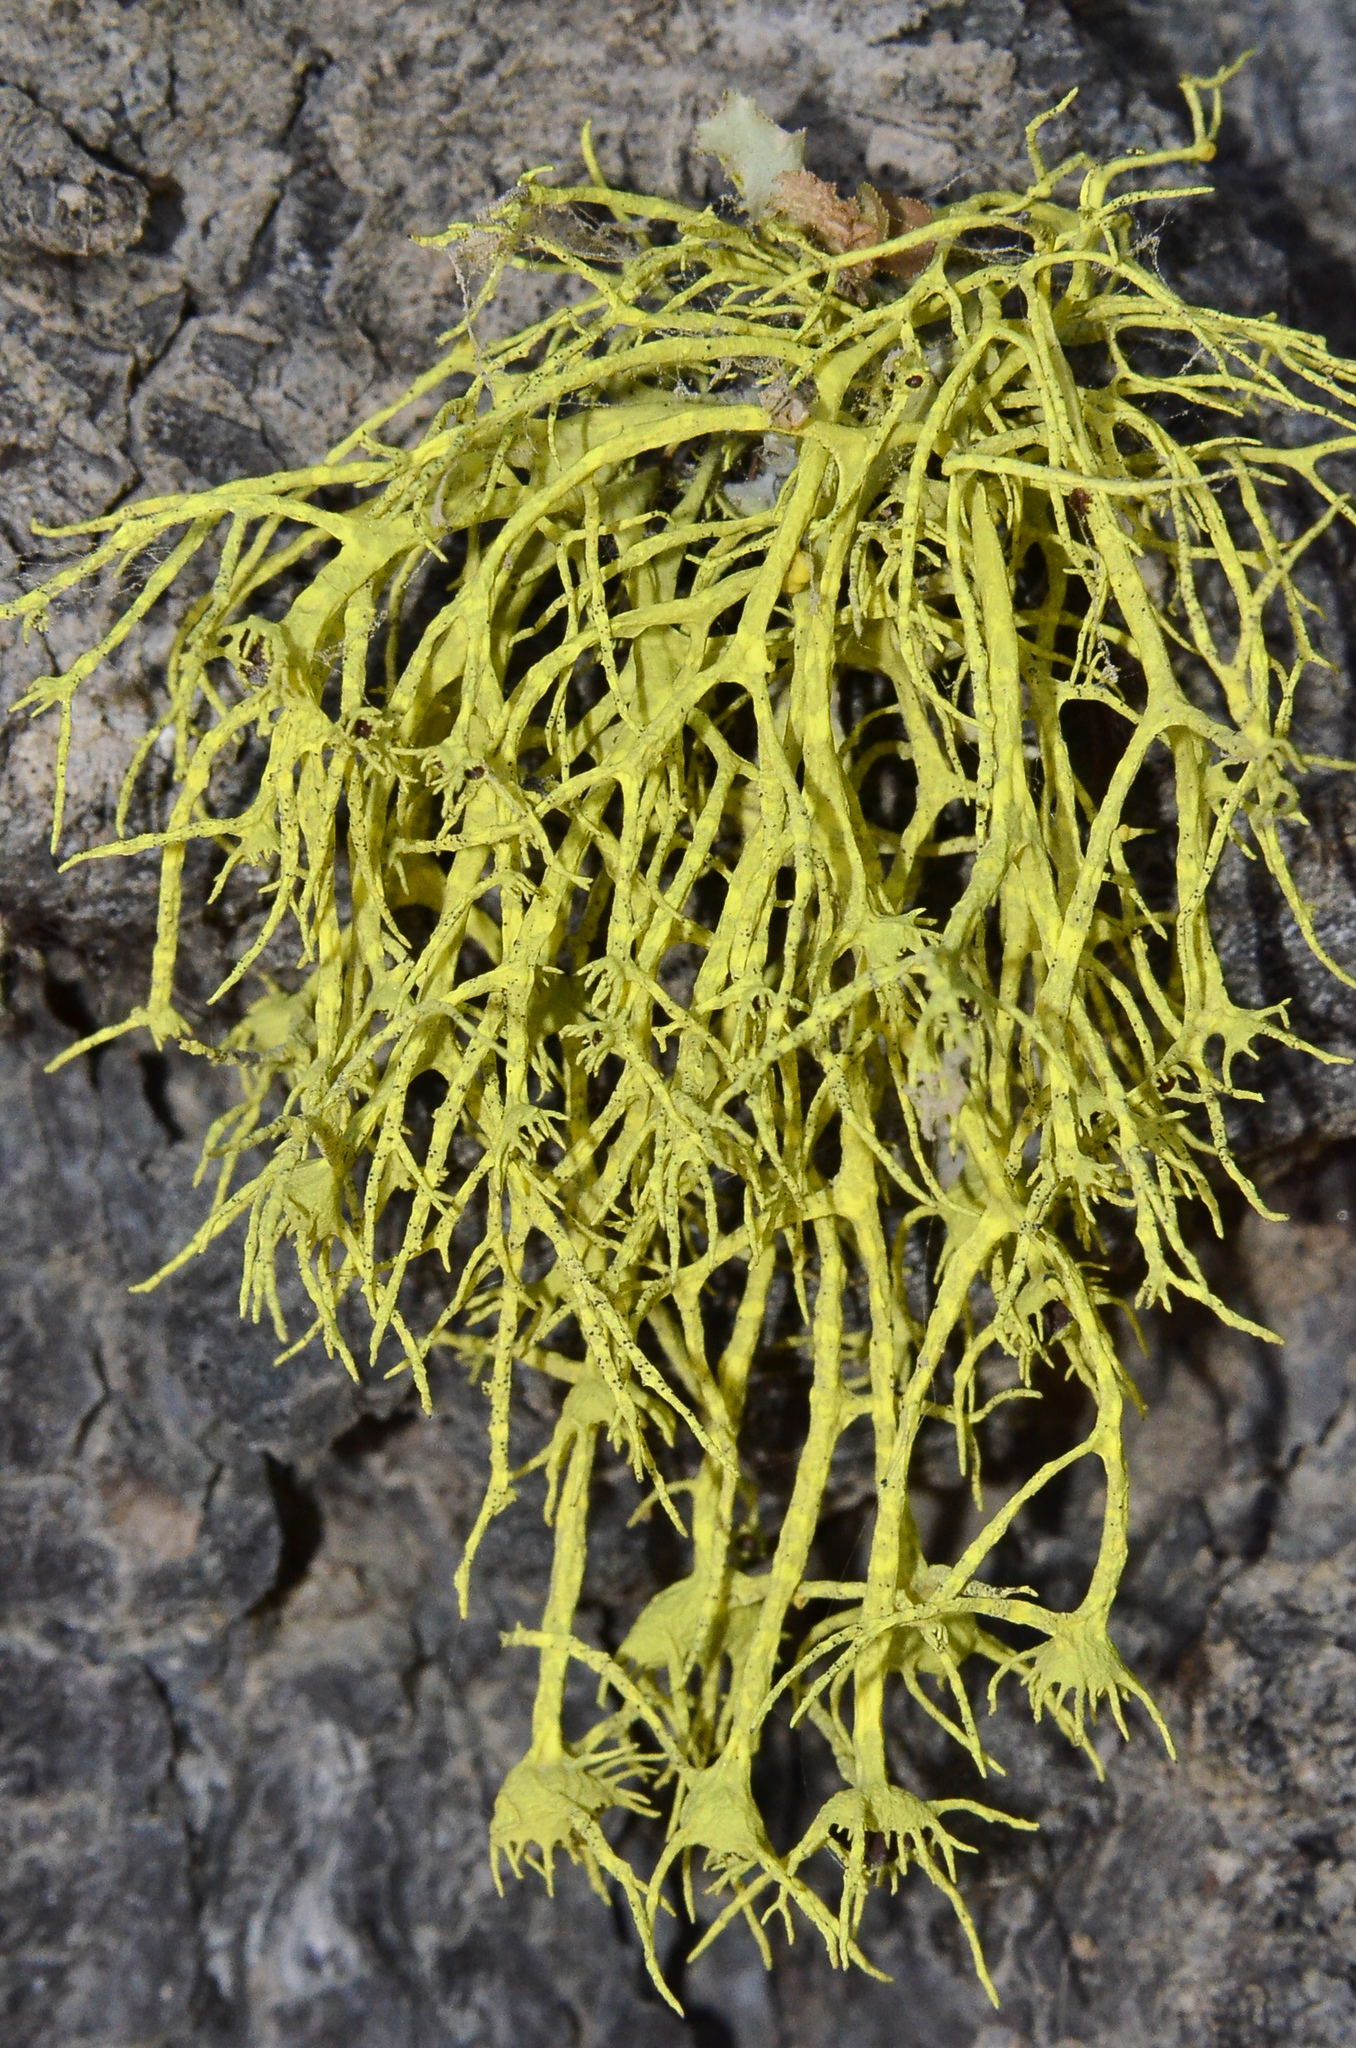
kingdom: Fungi
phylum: Ascomycota
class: Lecanoromycetes
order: Lecanorales
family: Parmeliaceae
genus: Letharia
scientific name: Letharia vulpina
